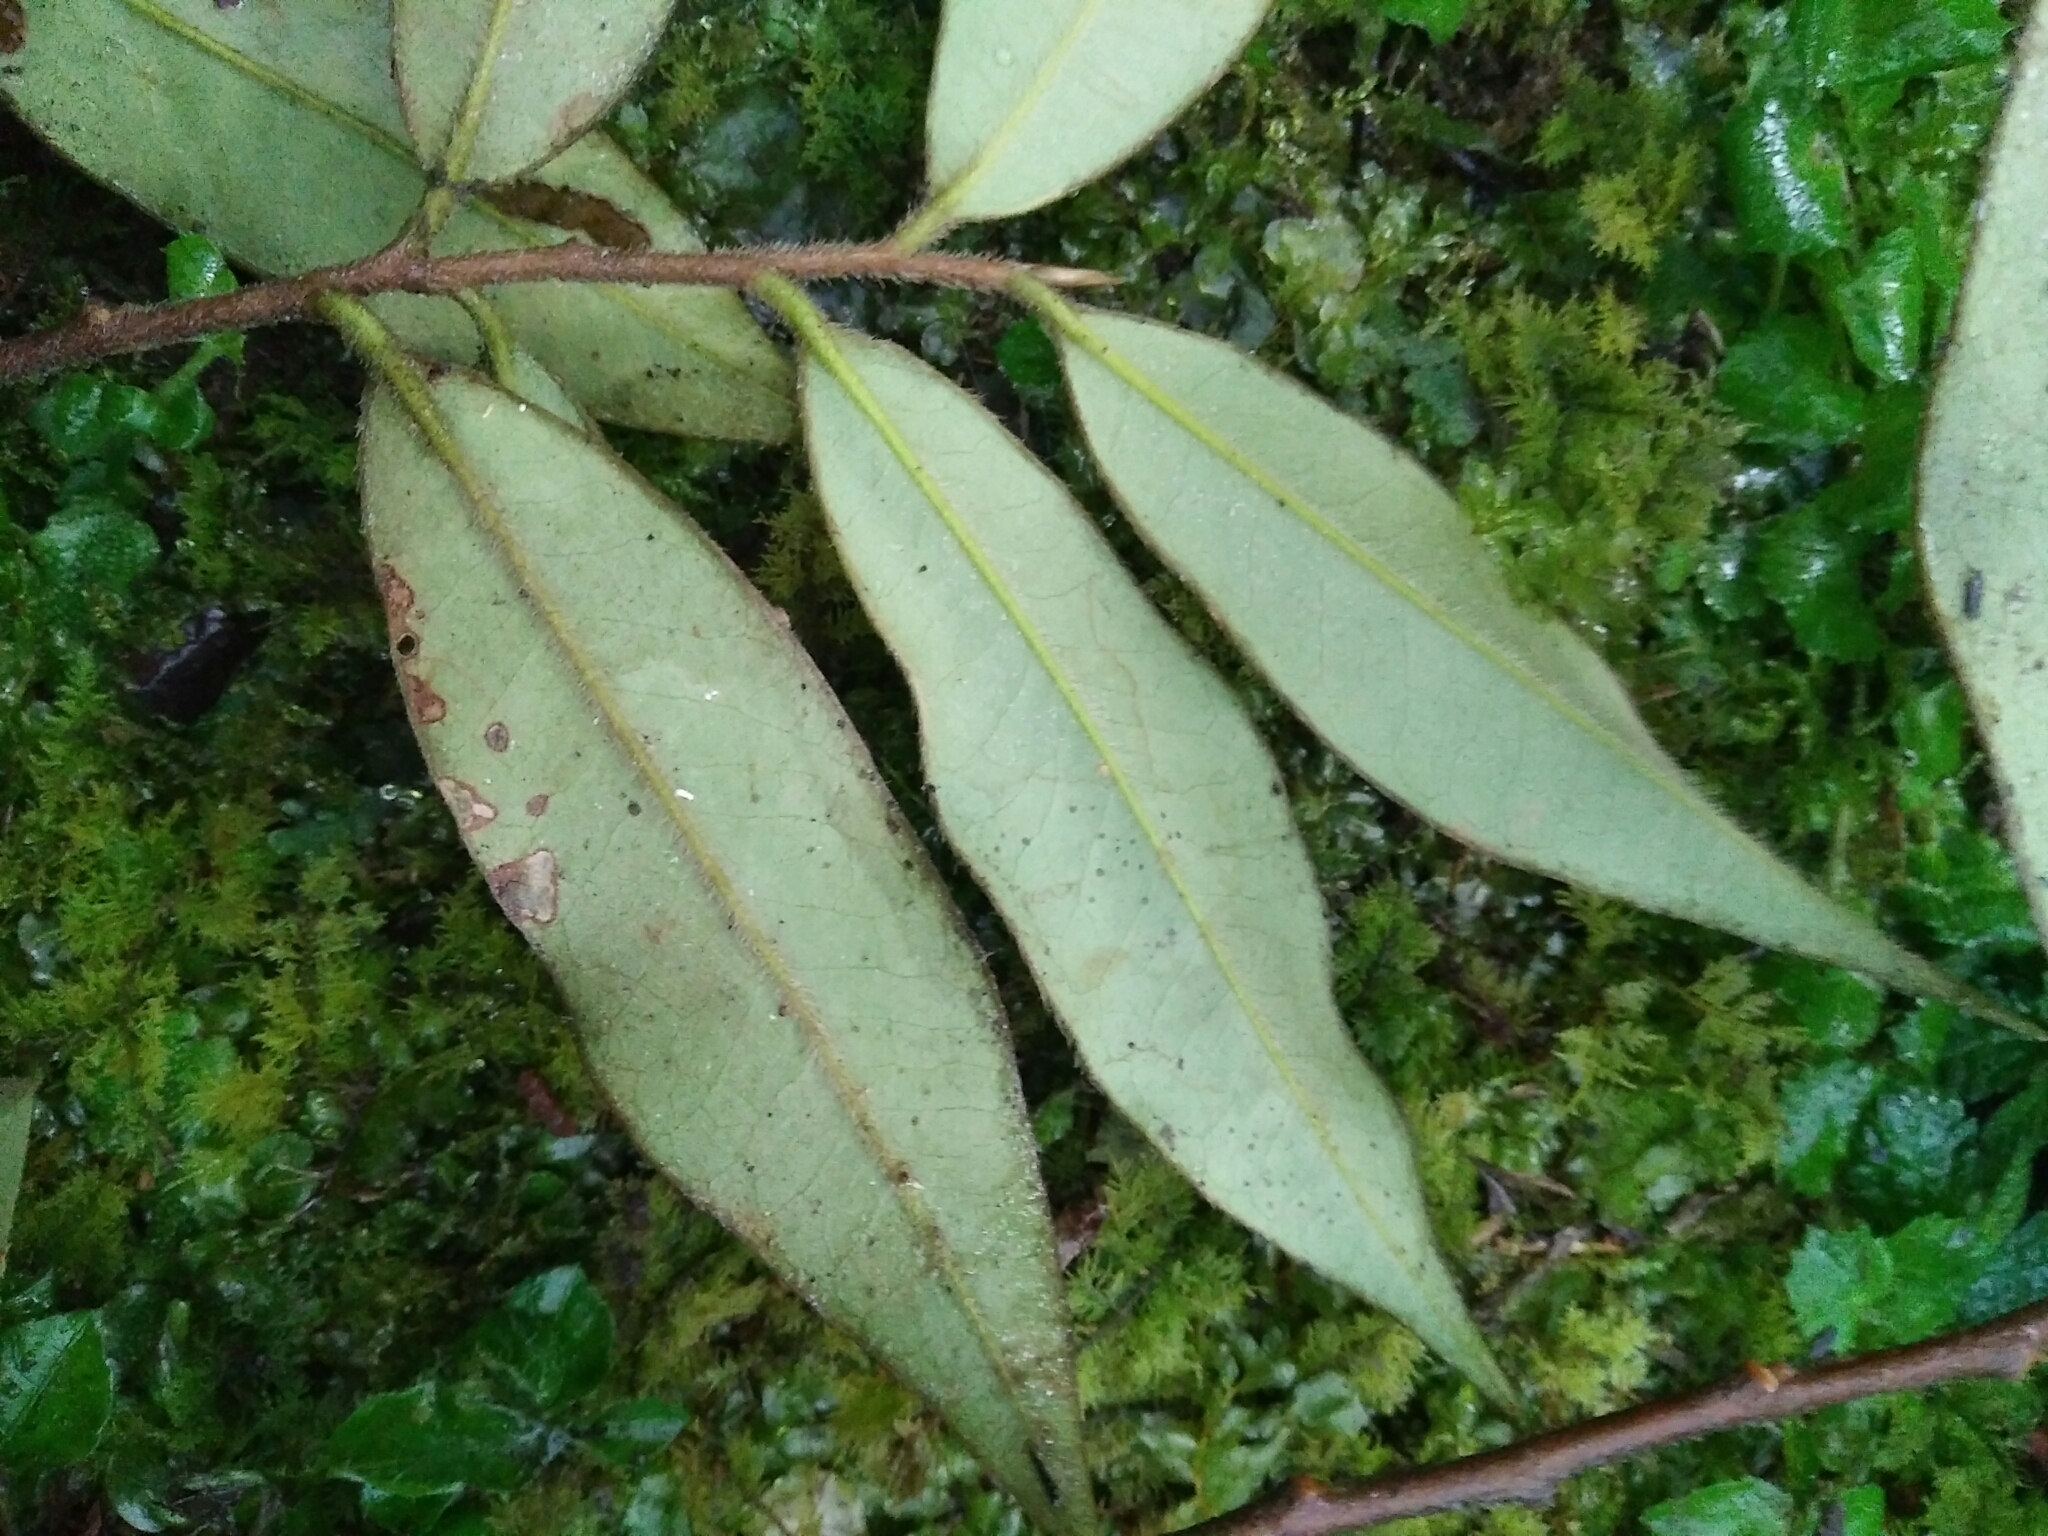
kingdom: Plantae
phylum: Tracheophyta
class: Magnoliopsida
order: Ericales
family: Pentaphylacaceae
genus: Adinandra
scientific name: Adinandra lasiostyla
